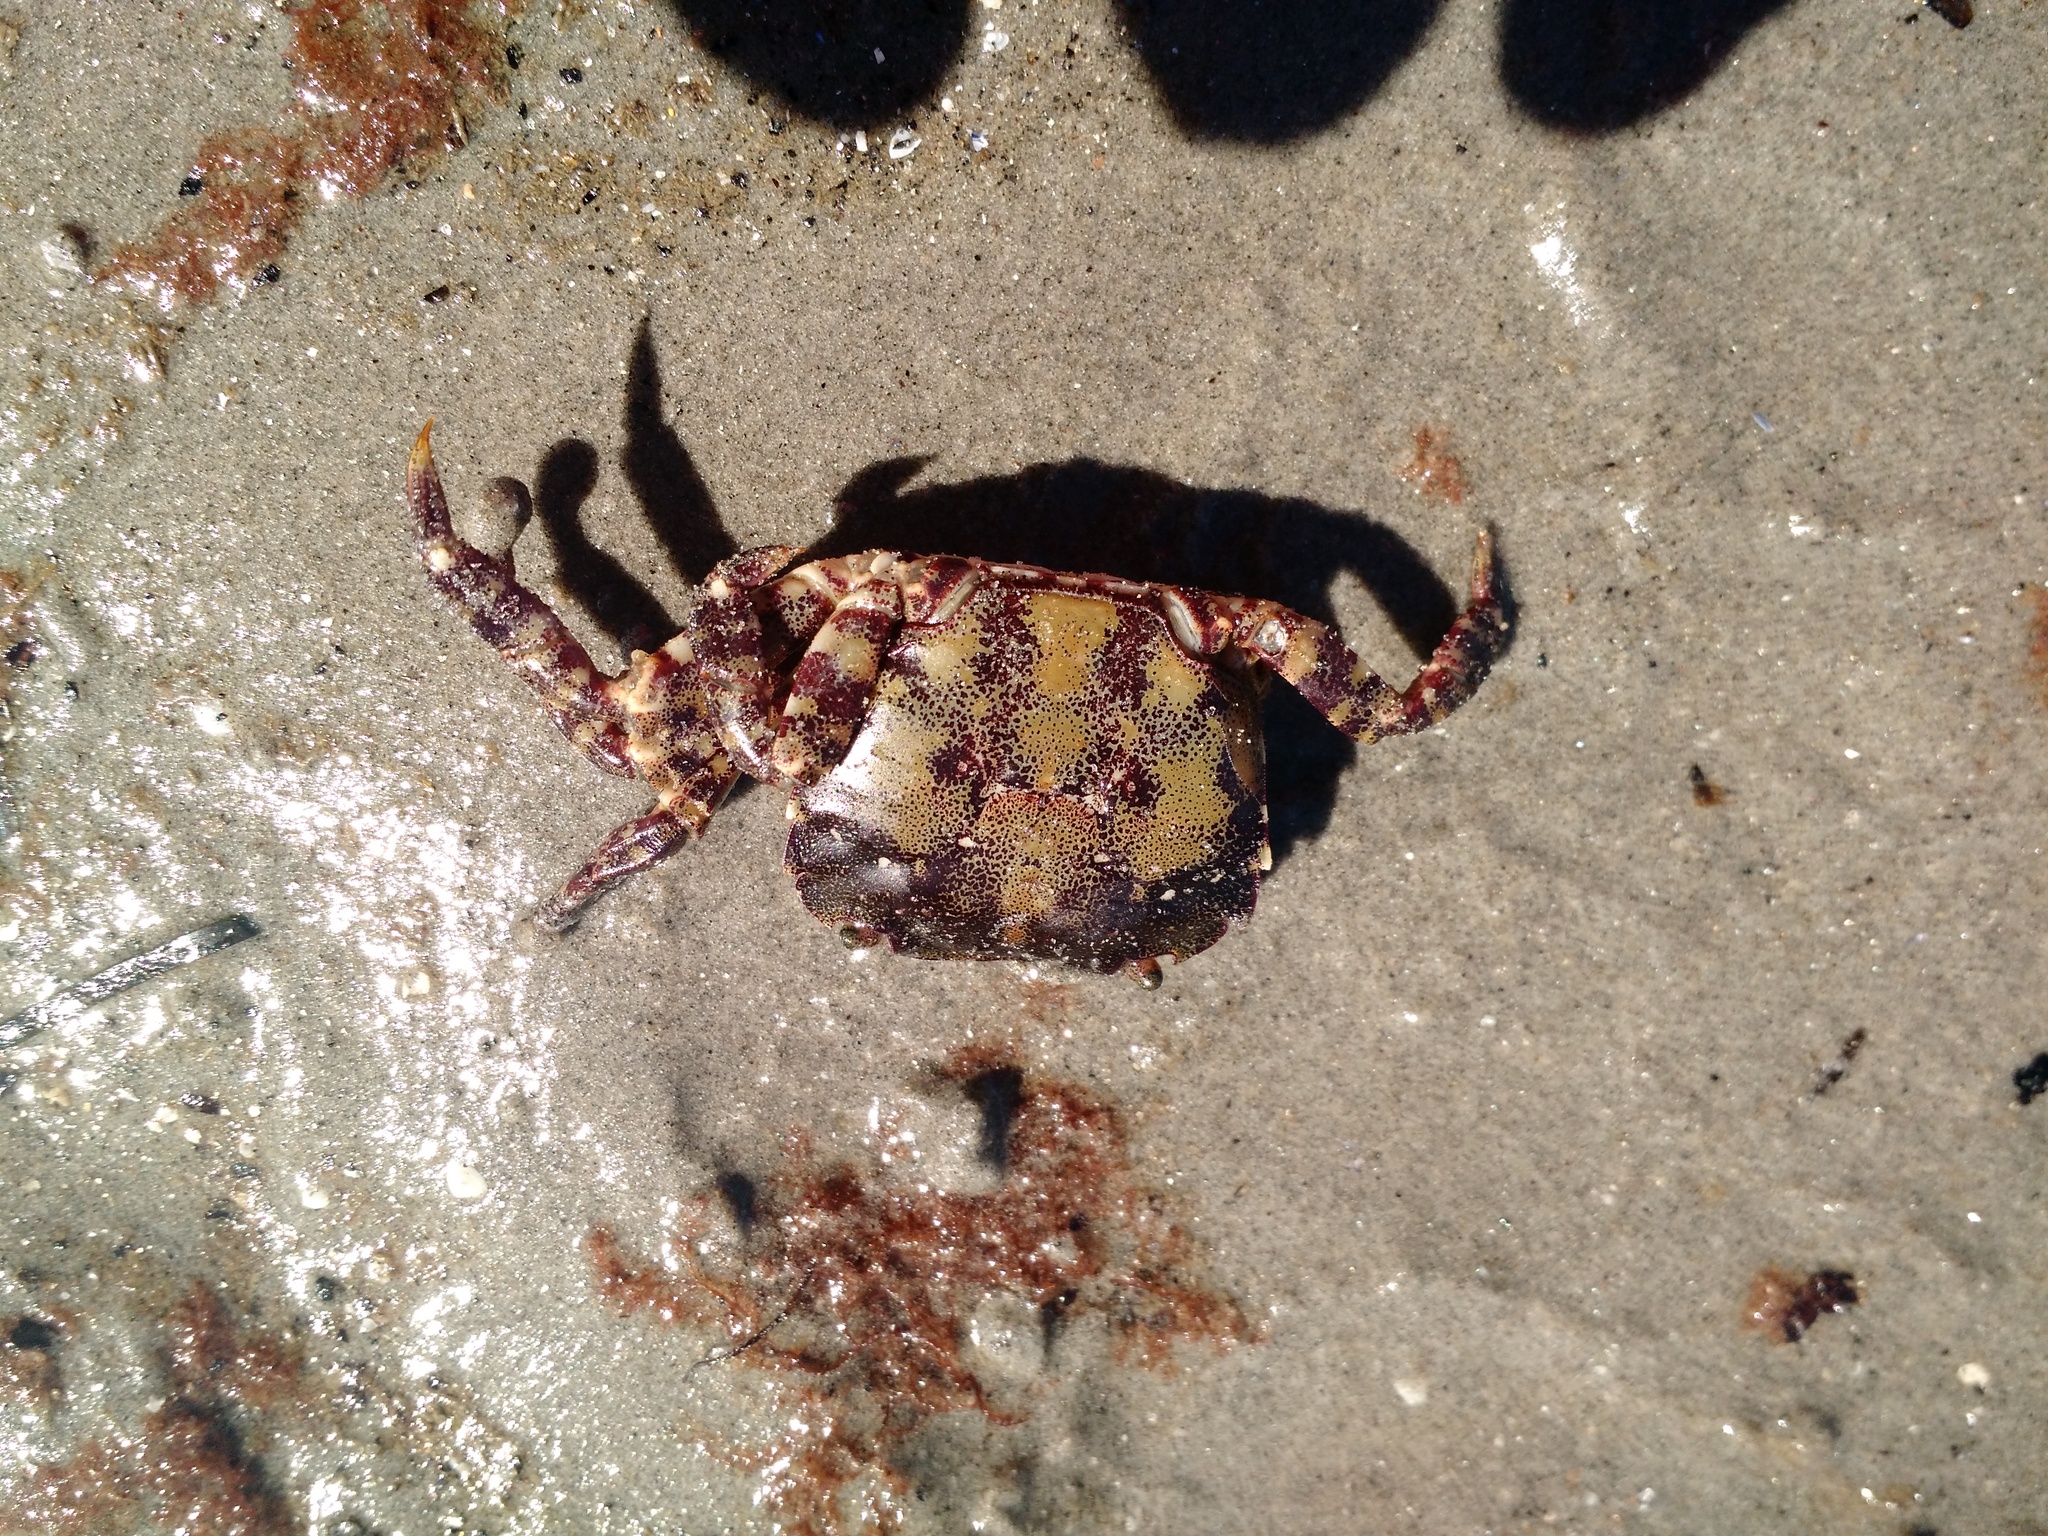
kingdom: Animalia
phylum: Arthropoda
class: Malacostraca
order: Decapoda
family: Varunidae
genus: Hemigrapsus
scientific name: Hemigrapsus sanguineus
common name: Asian shore crab
